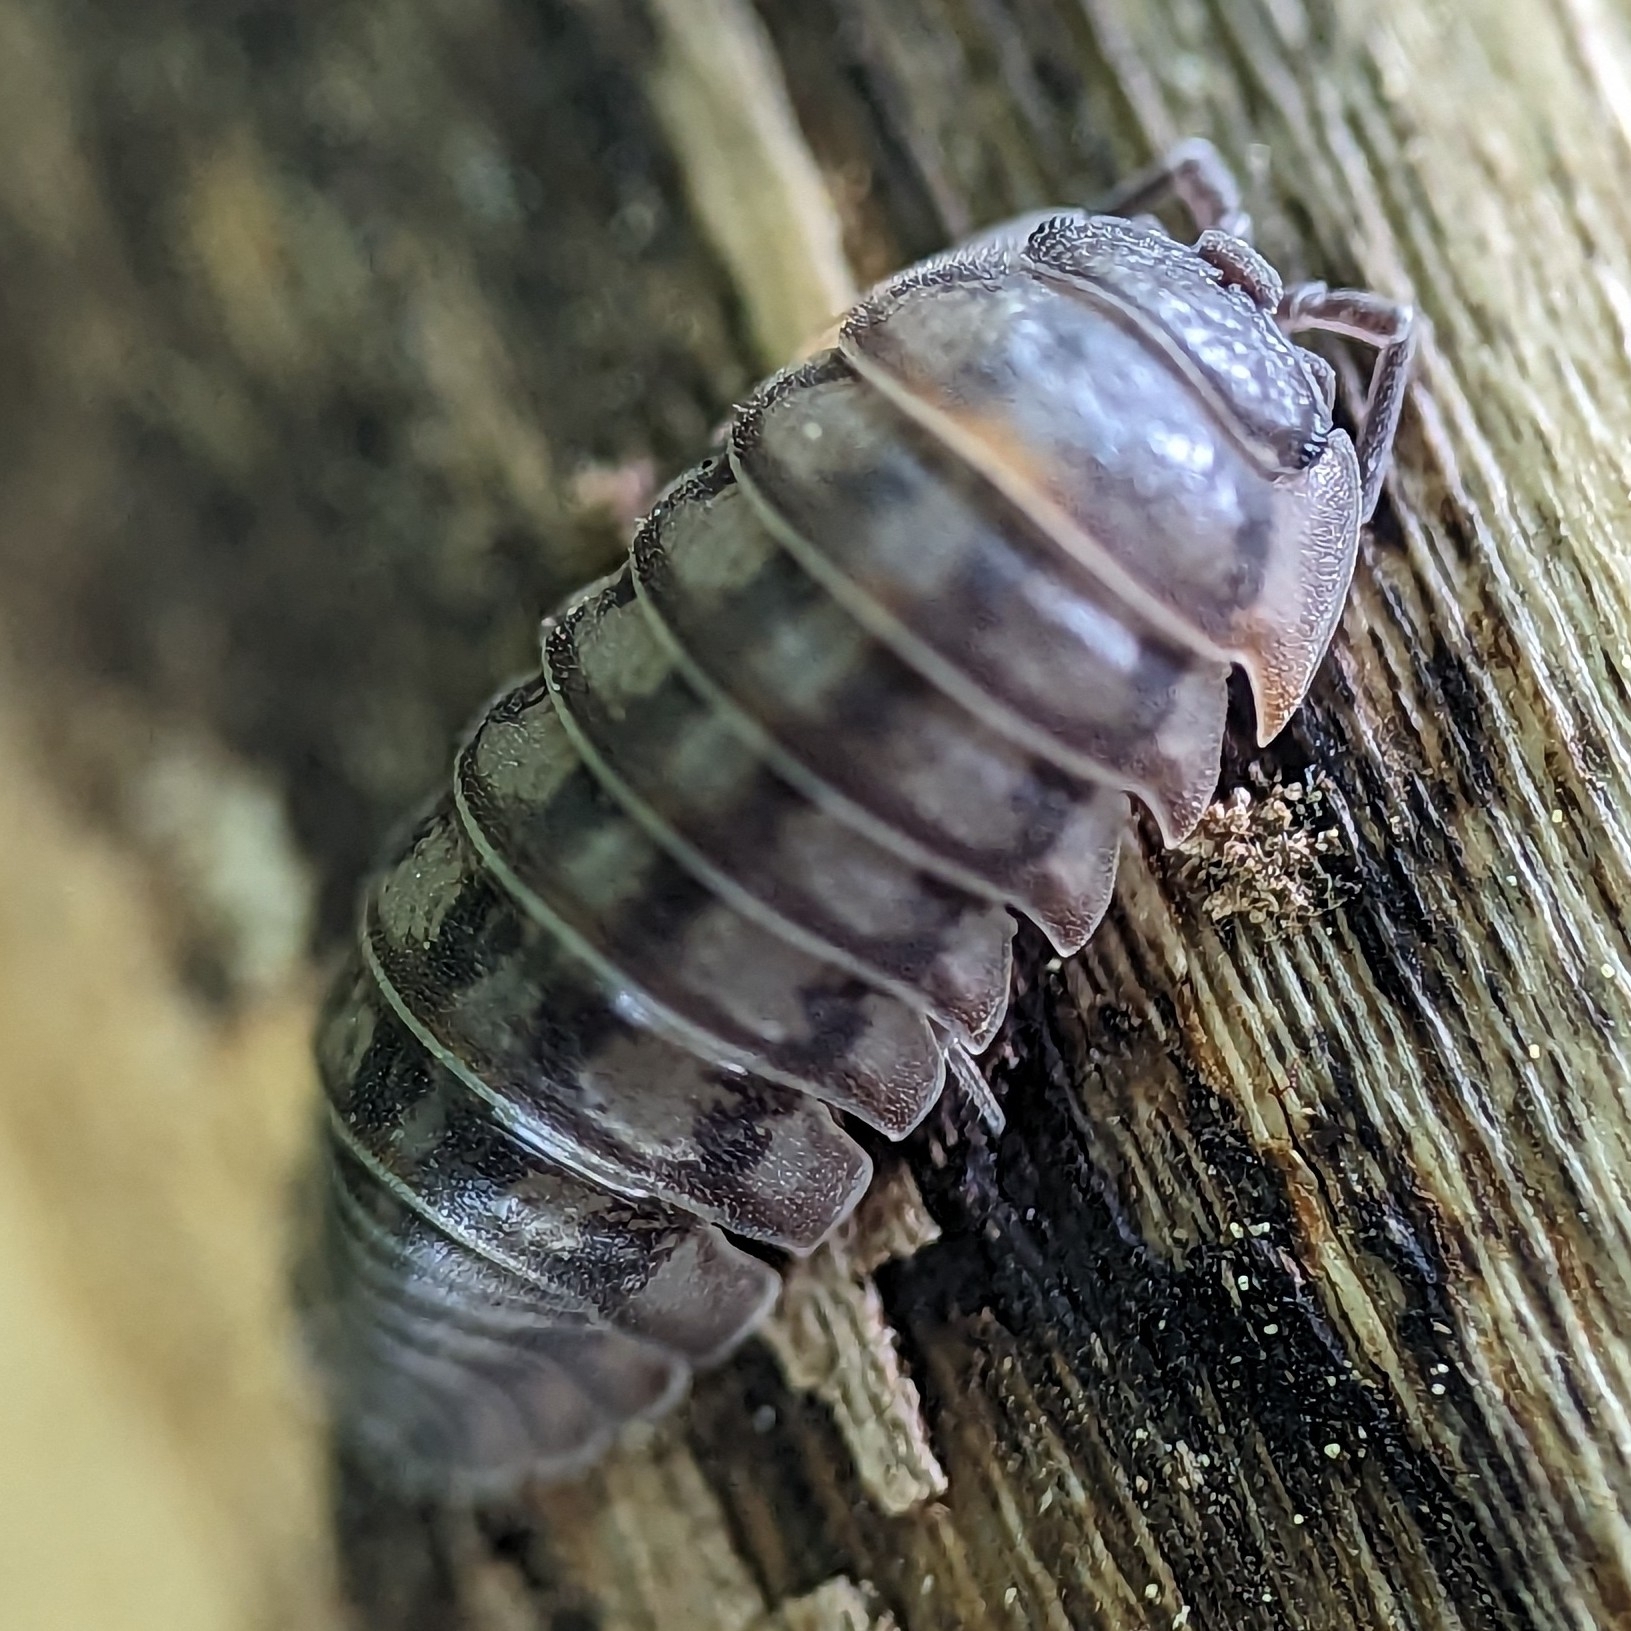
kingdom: Animalia
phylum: Arthropoda
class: Malacostraca
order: Isopoda
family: Armadillidiidae
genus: Armadillidium
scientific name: Armadillidium nasatum
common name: Isopod
